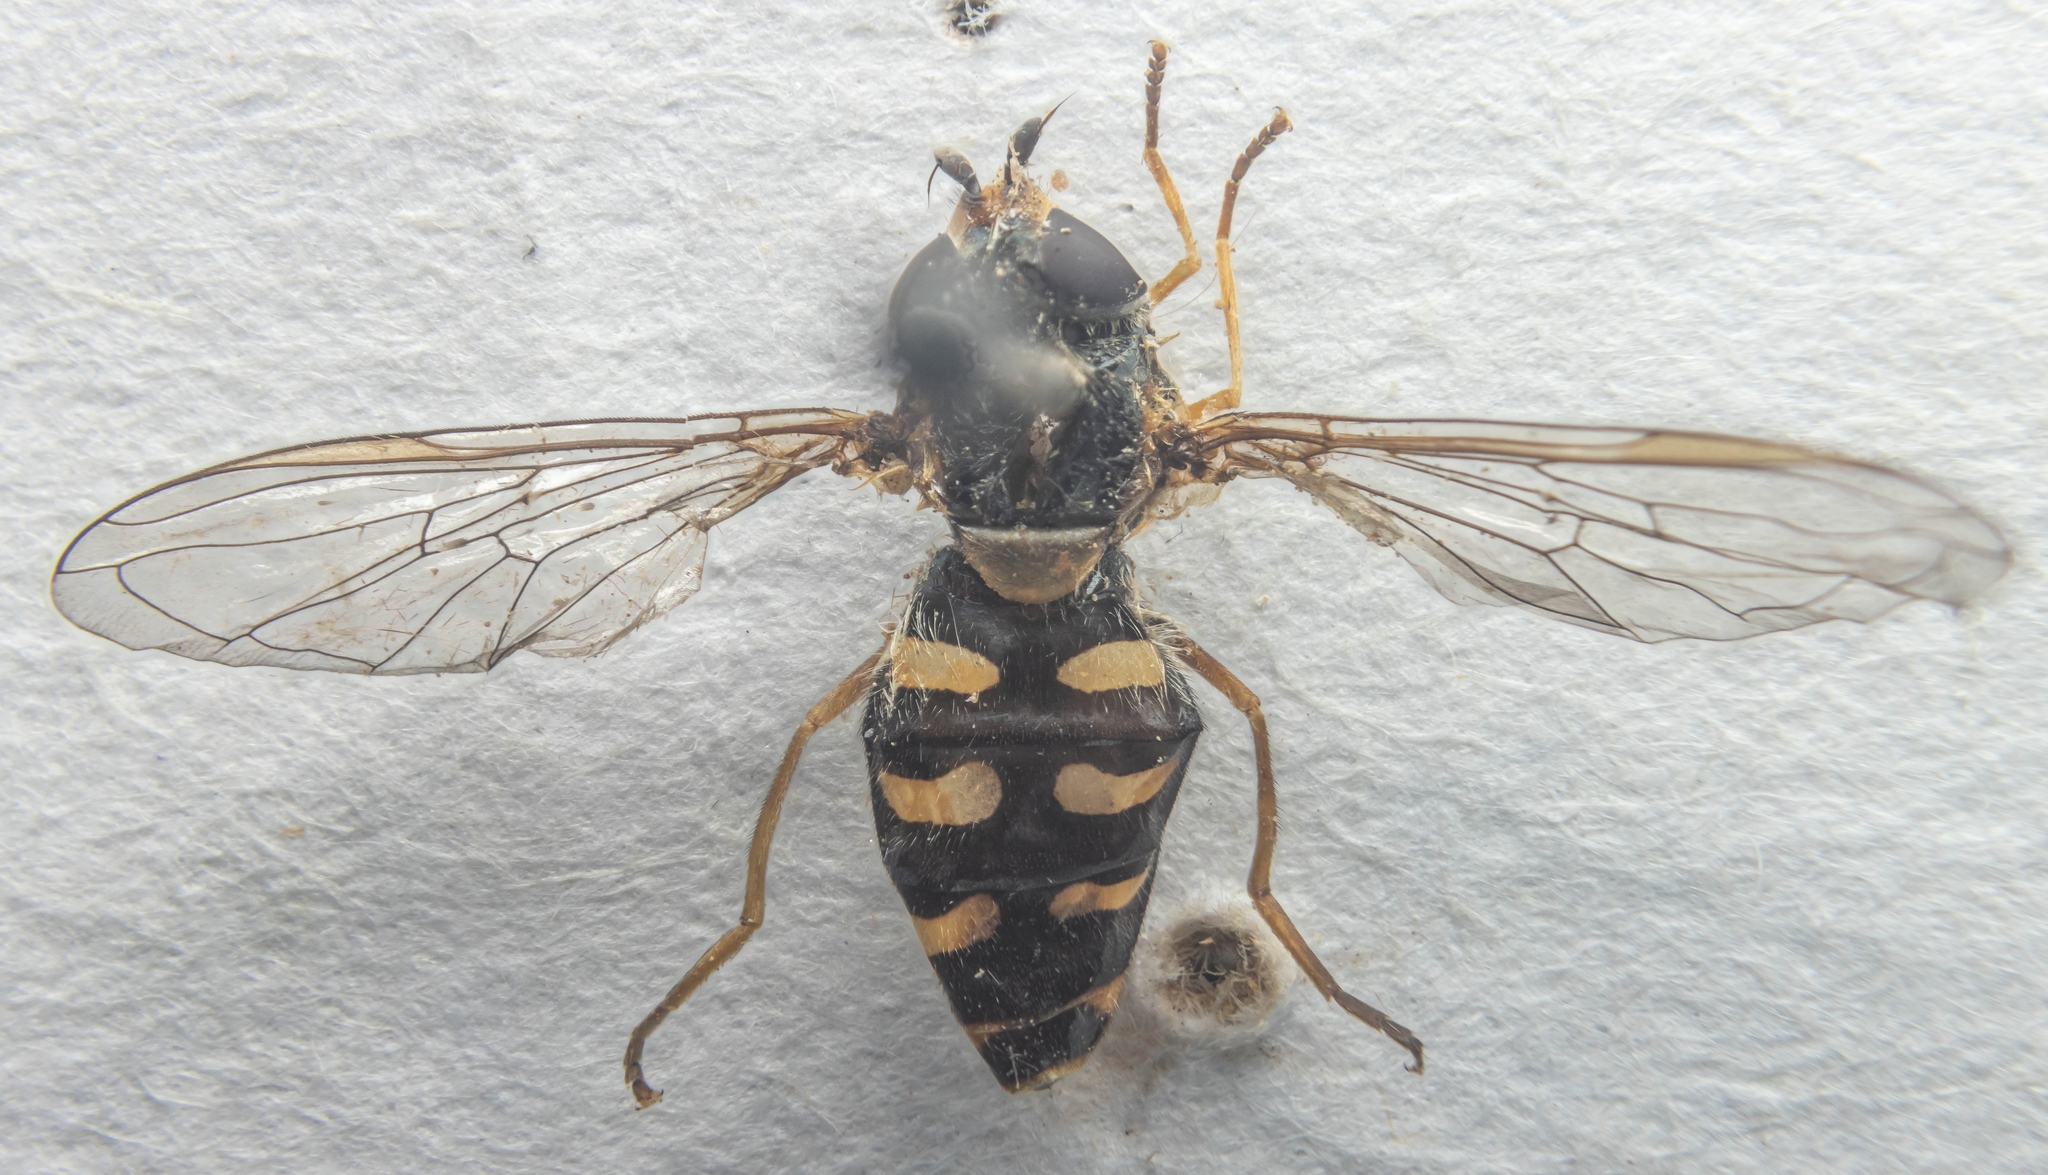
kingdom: Animalia
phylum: Arthropoda
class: Insecta
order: Diptera
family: Syrphidae
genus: Eupeodes
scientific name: Eupeodes
